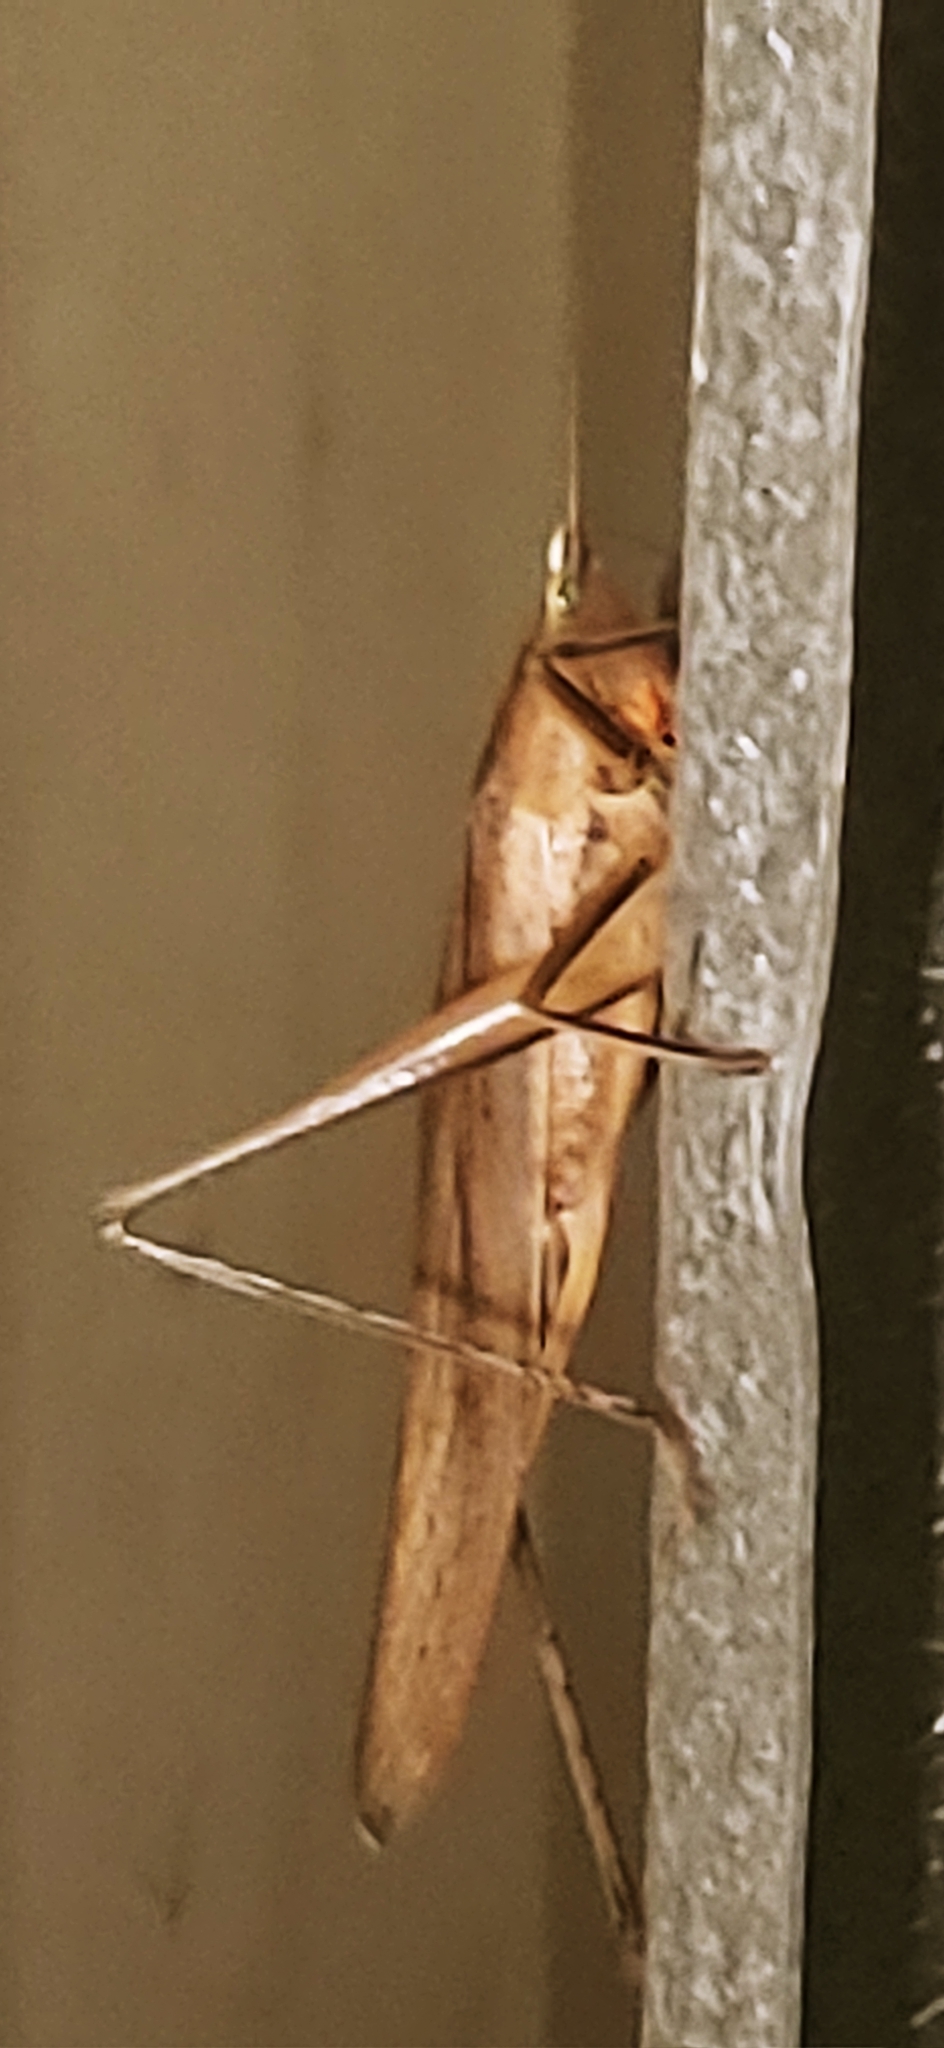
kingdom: Animalia
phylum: Arthropoda
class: Insecta
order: Orthoptera
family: Tettigoniidae
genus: Neoconocephalus
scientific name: Neoconocephalus triops
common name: Broad-tipped conehead
